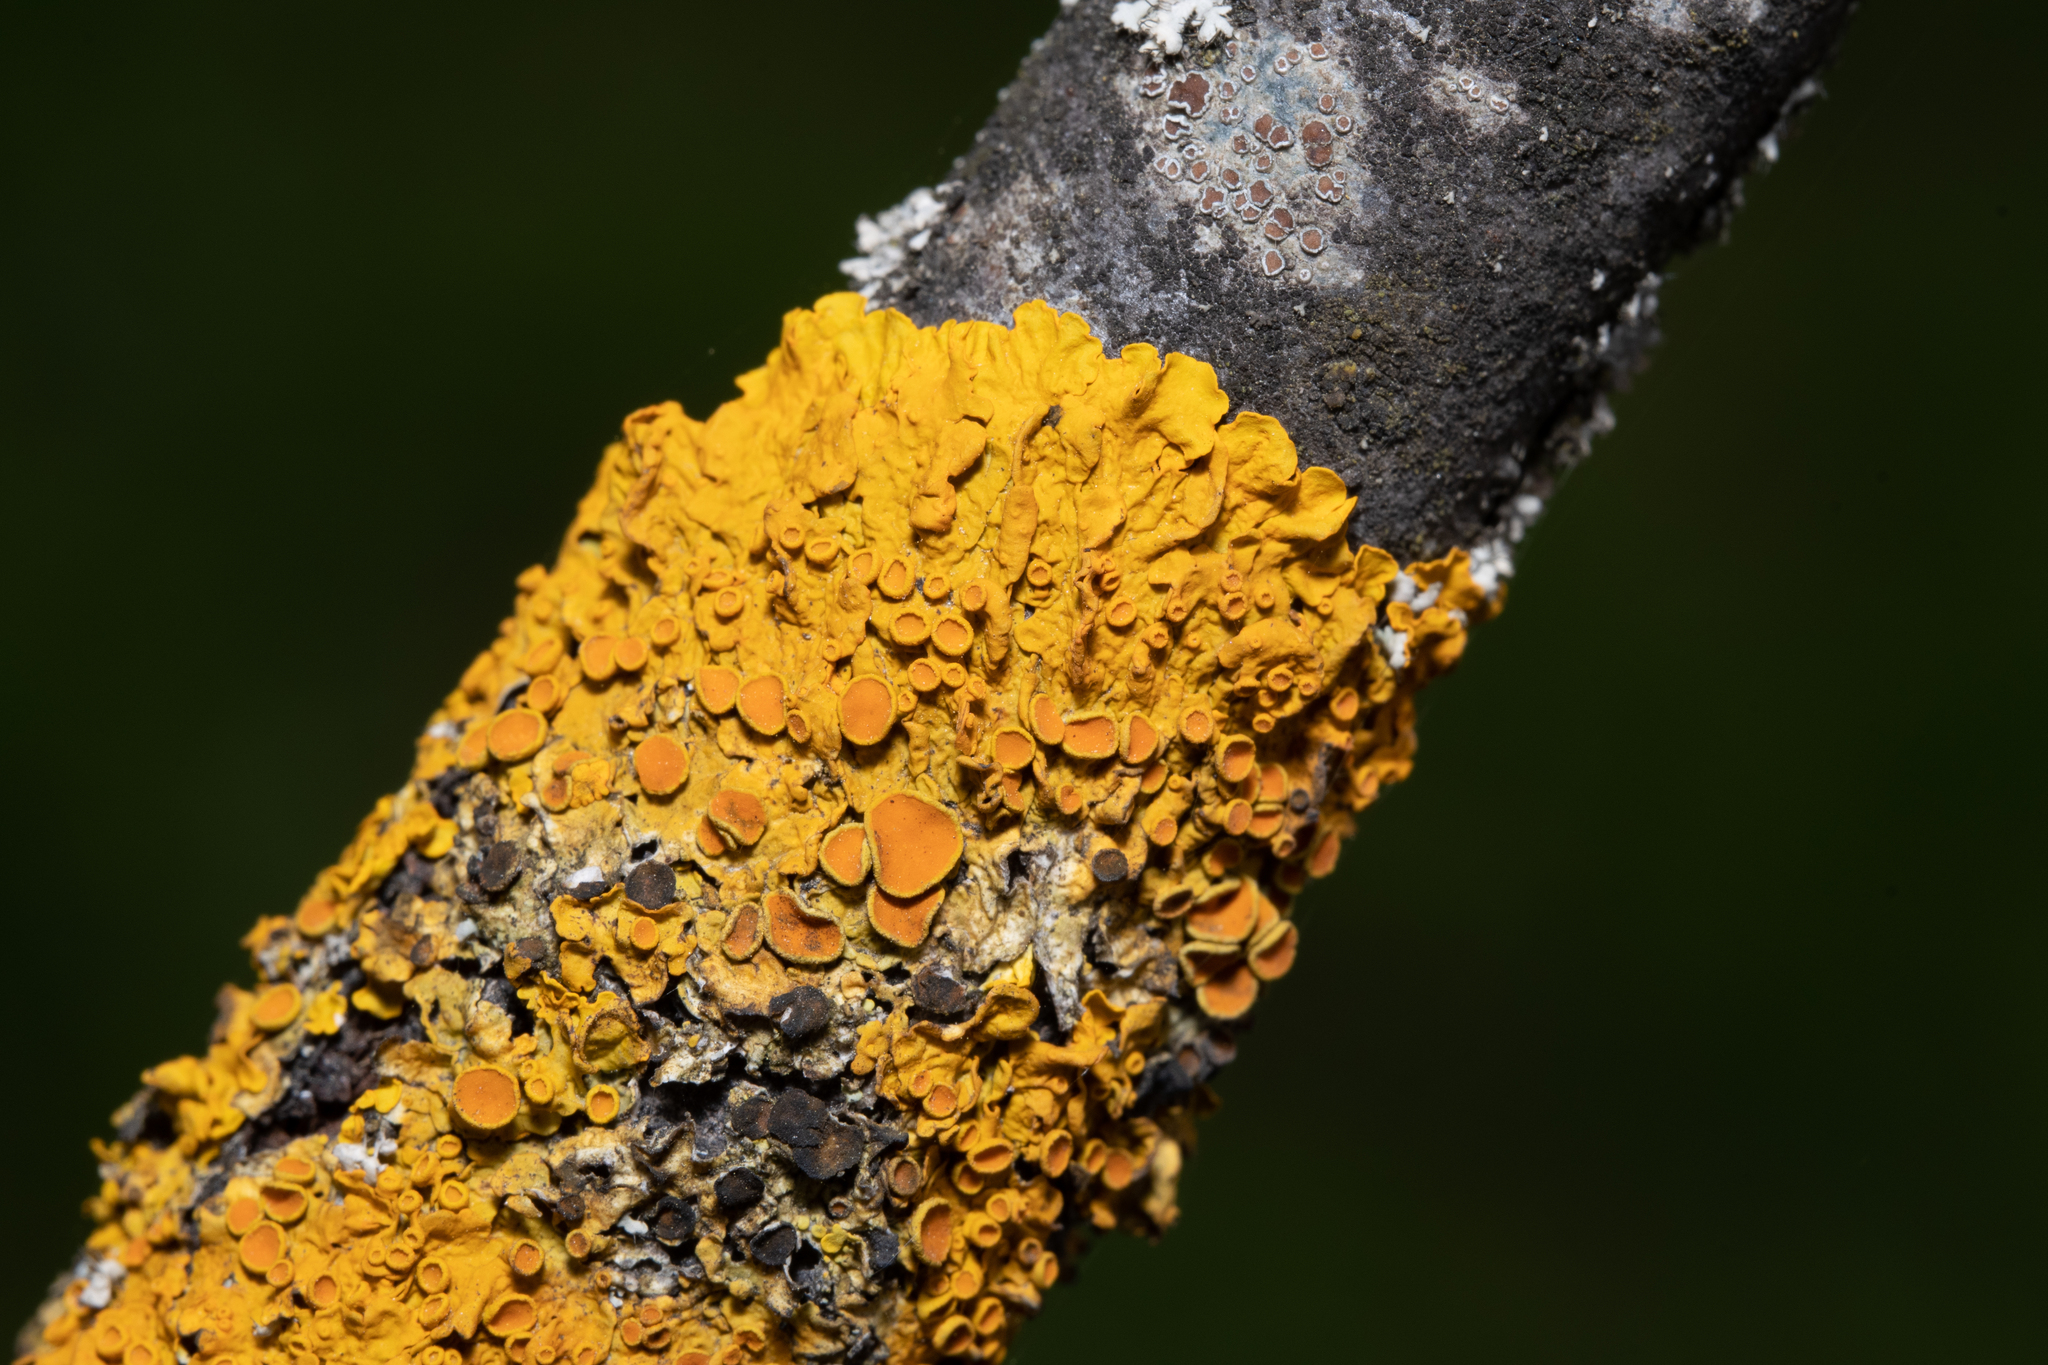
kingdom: Fungi
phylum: Ascomycota
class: Lecanoromycetes
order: Teloschistales
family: Teloschistaceae
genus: Xanthoria
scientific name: Xanthoria parietina
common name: Common orange lichen
